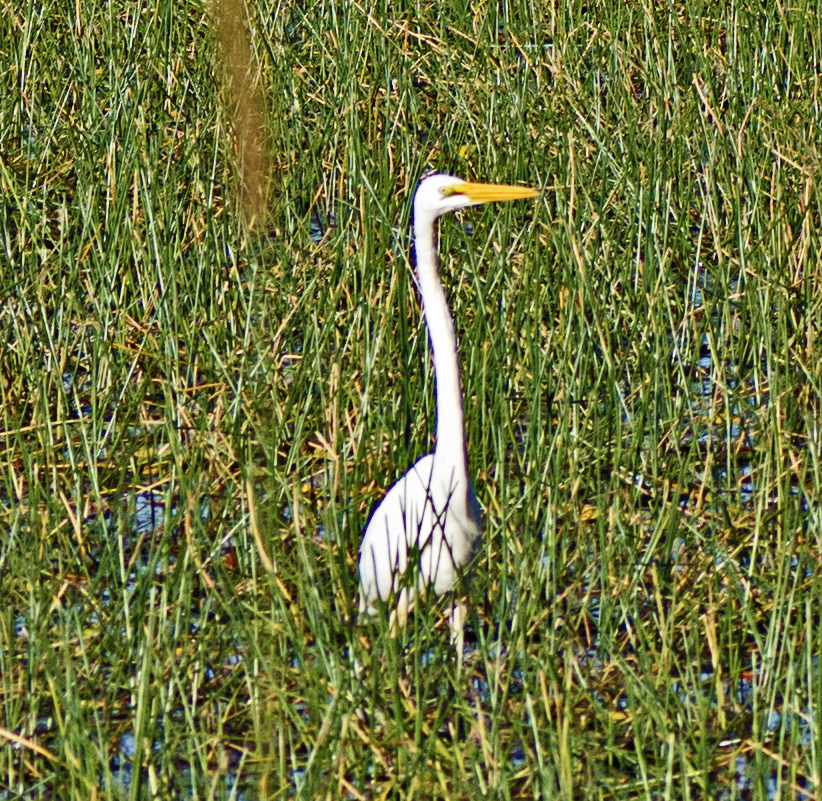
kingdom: Animalia
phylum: Chordata
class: Aves
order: Pelecaniformes
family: Ardeidae
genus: Ardea
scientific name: Ardea modesta
